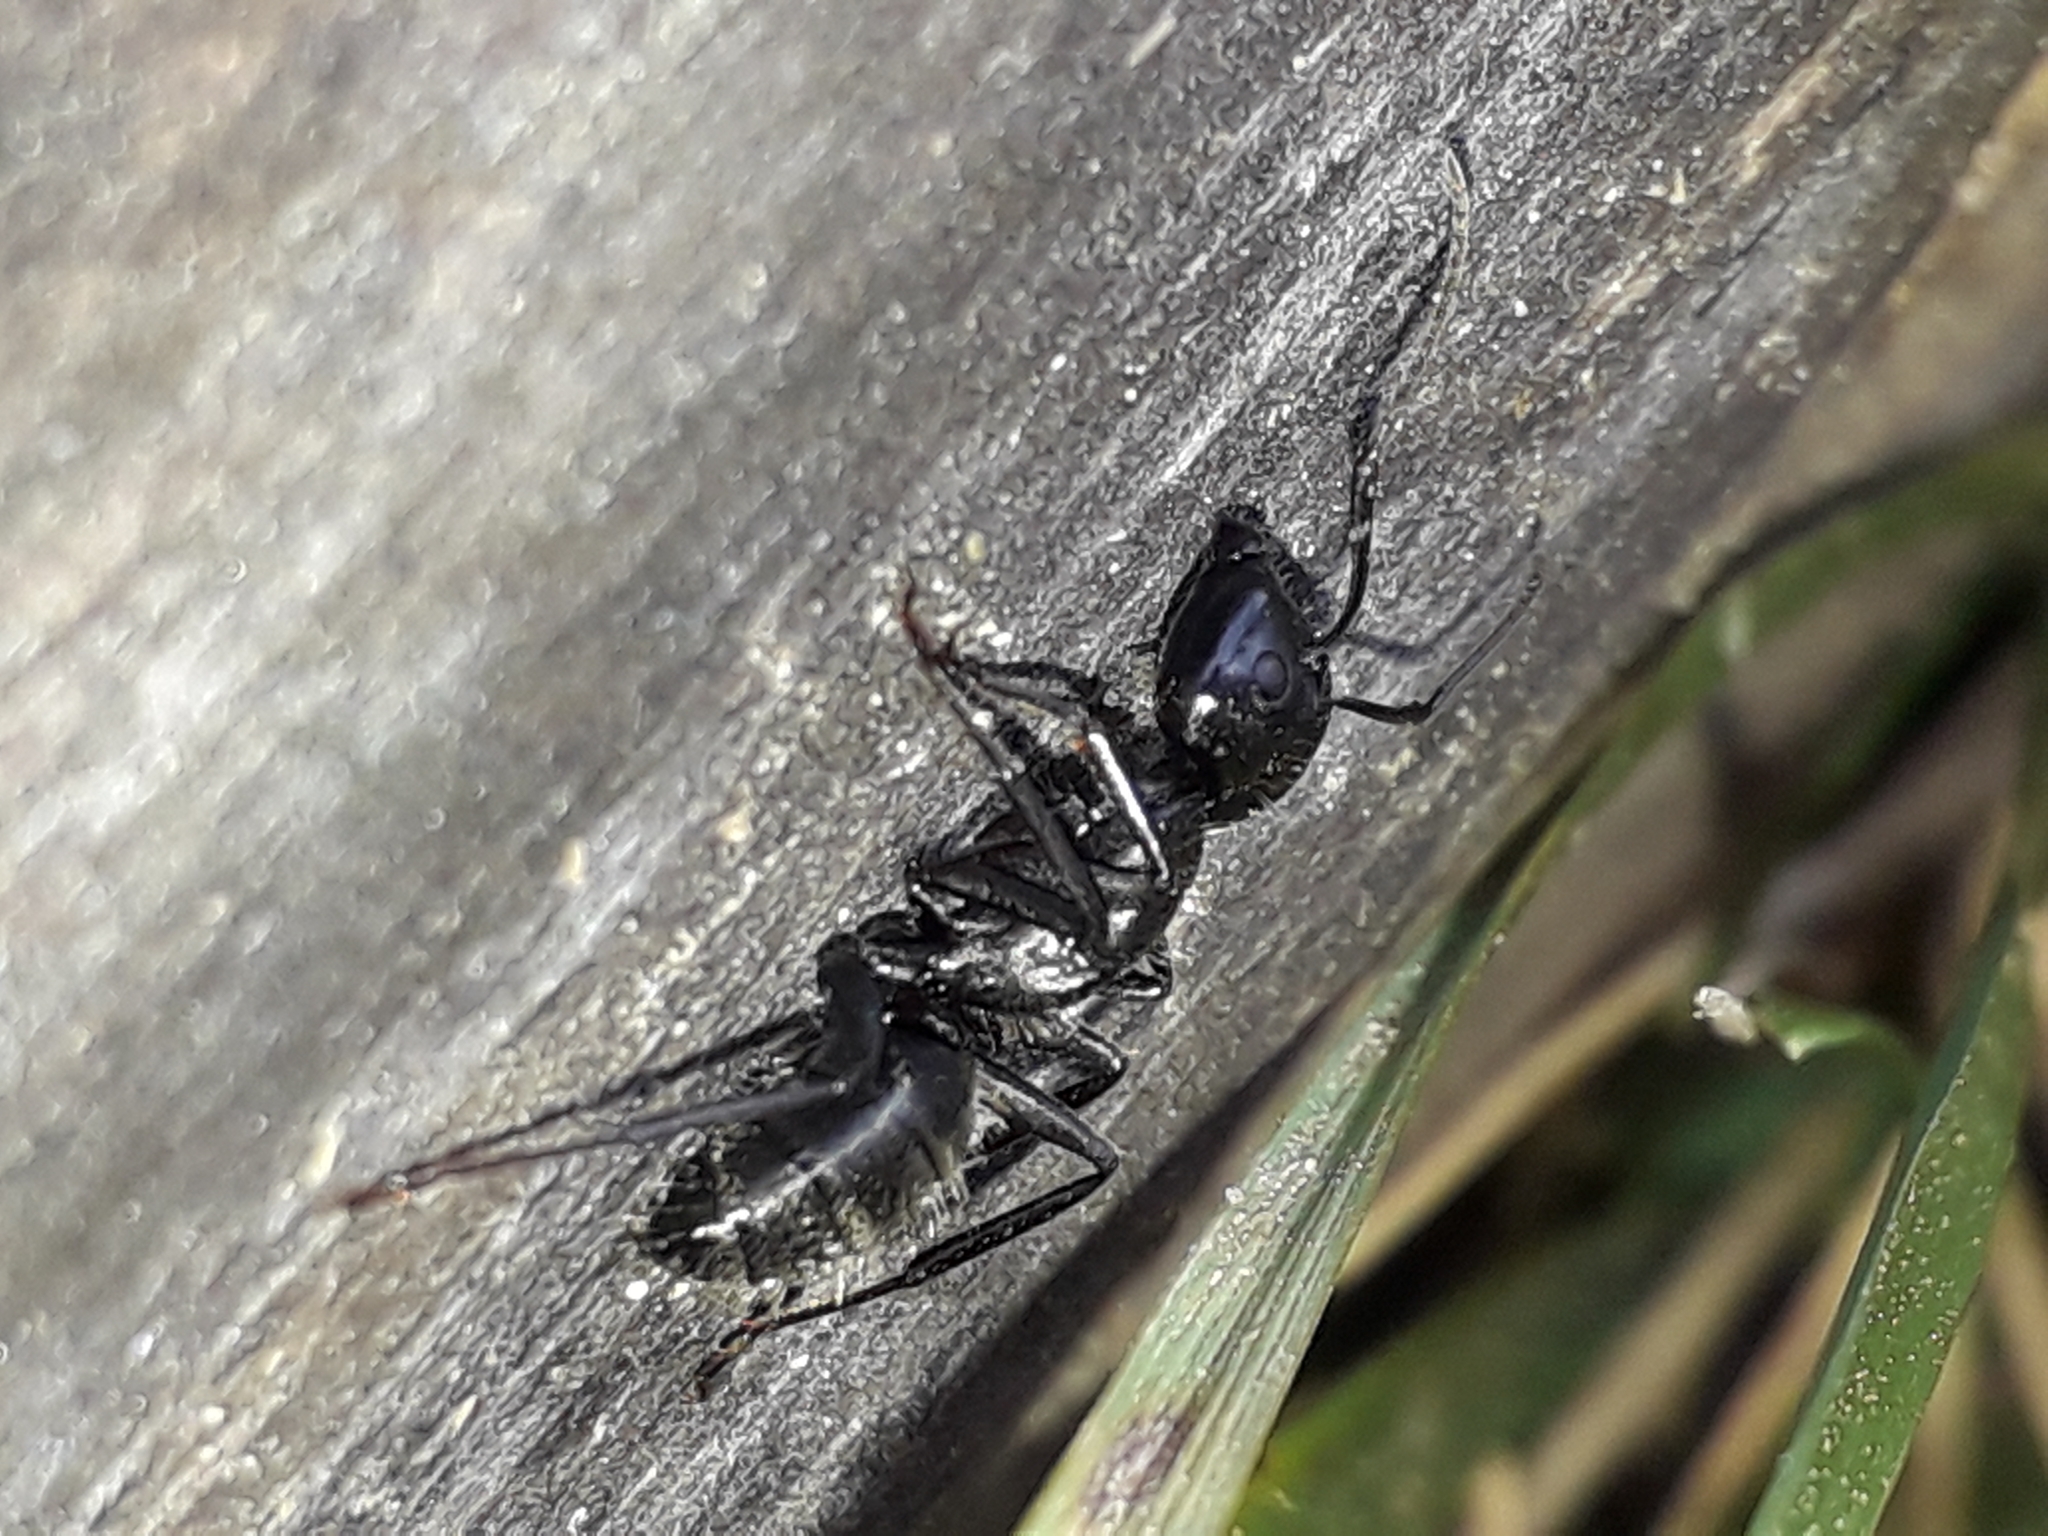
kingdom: Animalia
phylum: Arthropoda
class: Insecta
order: Hymenoptera
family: Formicidae
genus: Camponotus
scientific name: Camponotus vagus
